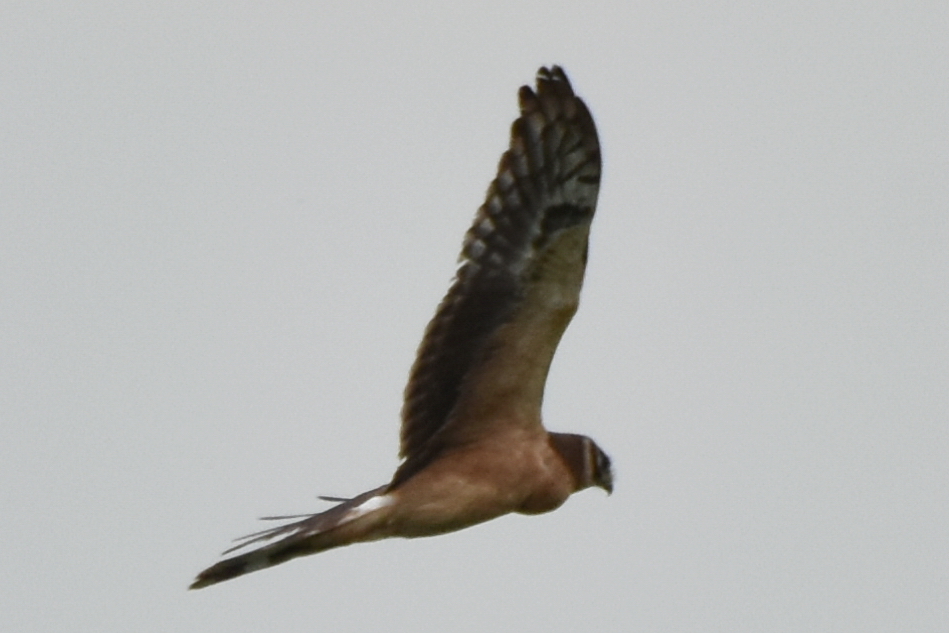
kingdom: Animalia
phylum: Chordata
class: Aves
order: Accipitriformes
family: Accipitridae
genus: Circus
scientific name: Circus macrourus
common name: Pallid harrier
